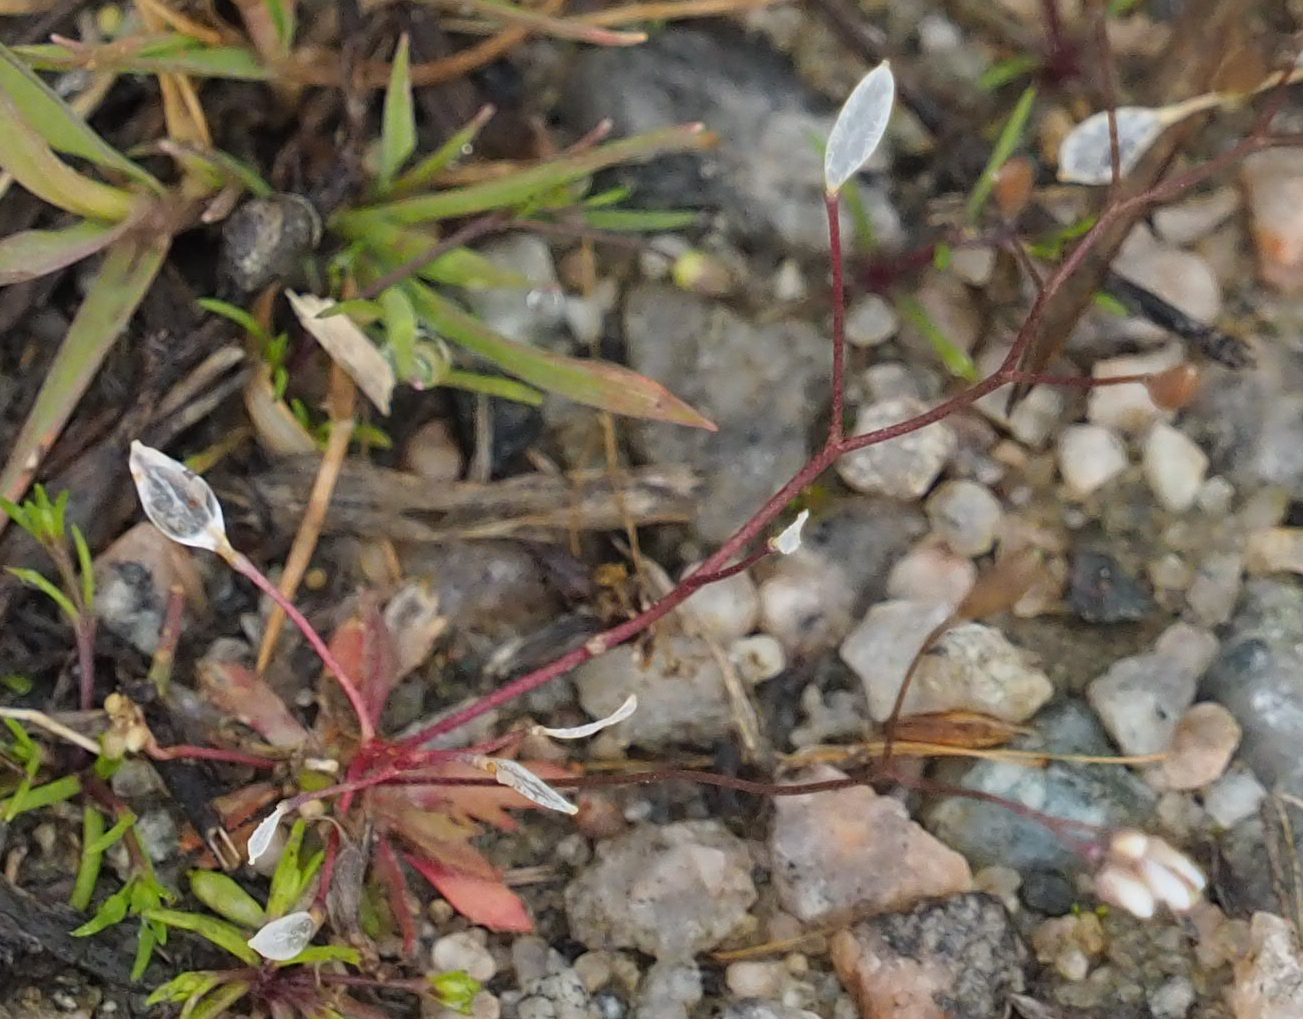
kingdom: Plantae
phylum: Tracheophyta
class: Magnoliopsida
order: Brassicales
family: Brassicaceae
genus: Draba
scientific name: Draba verna
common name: Spring draba
